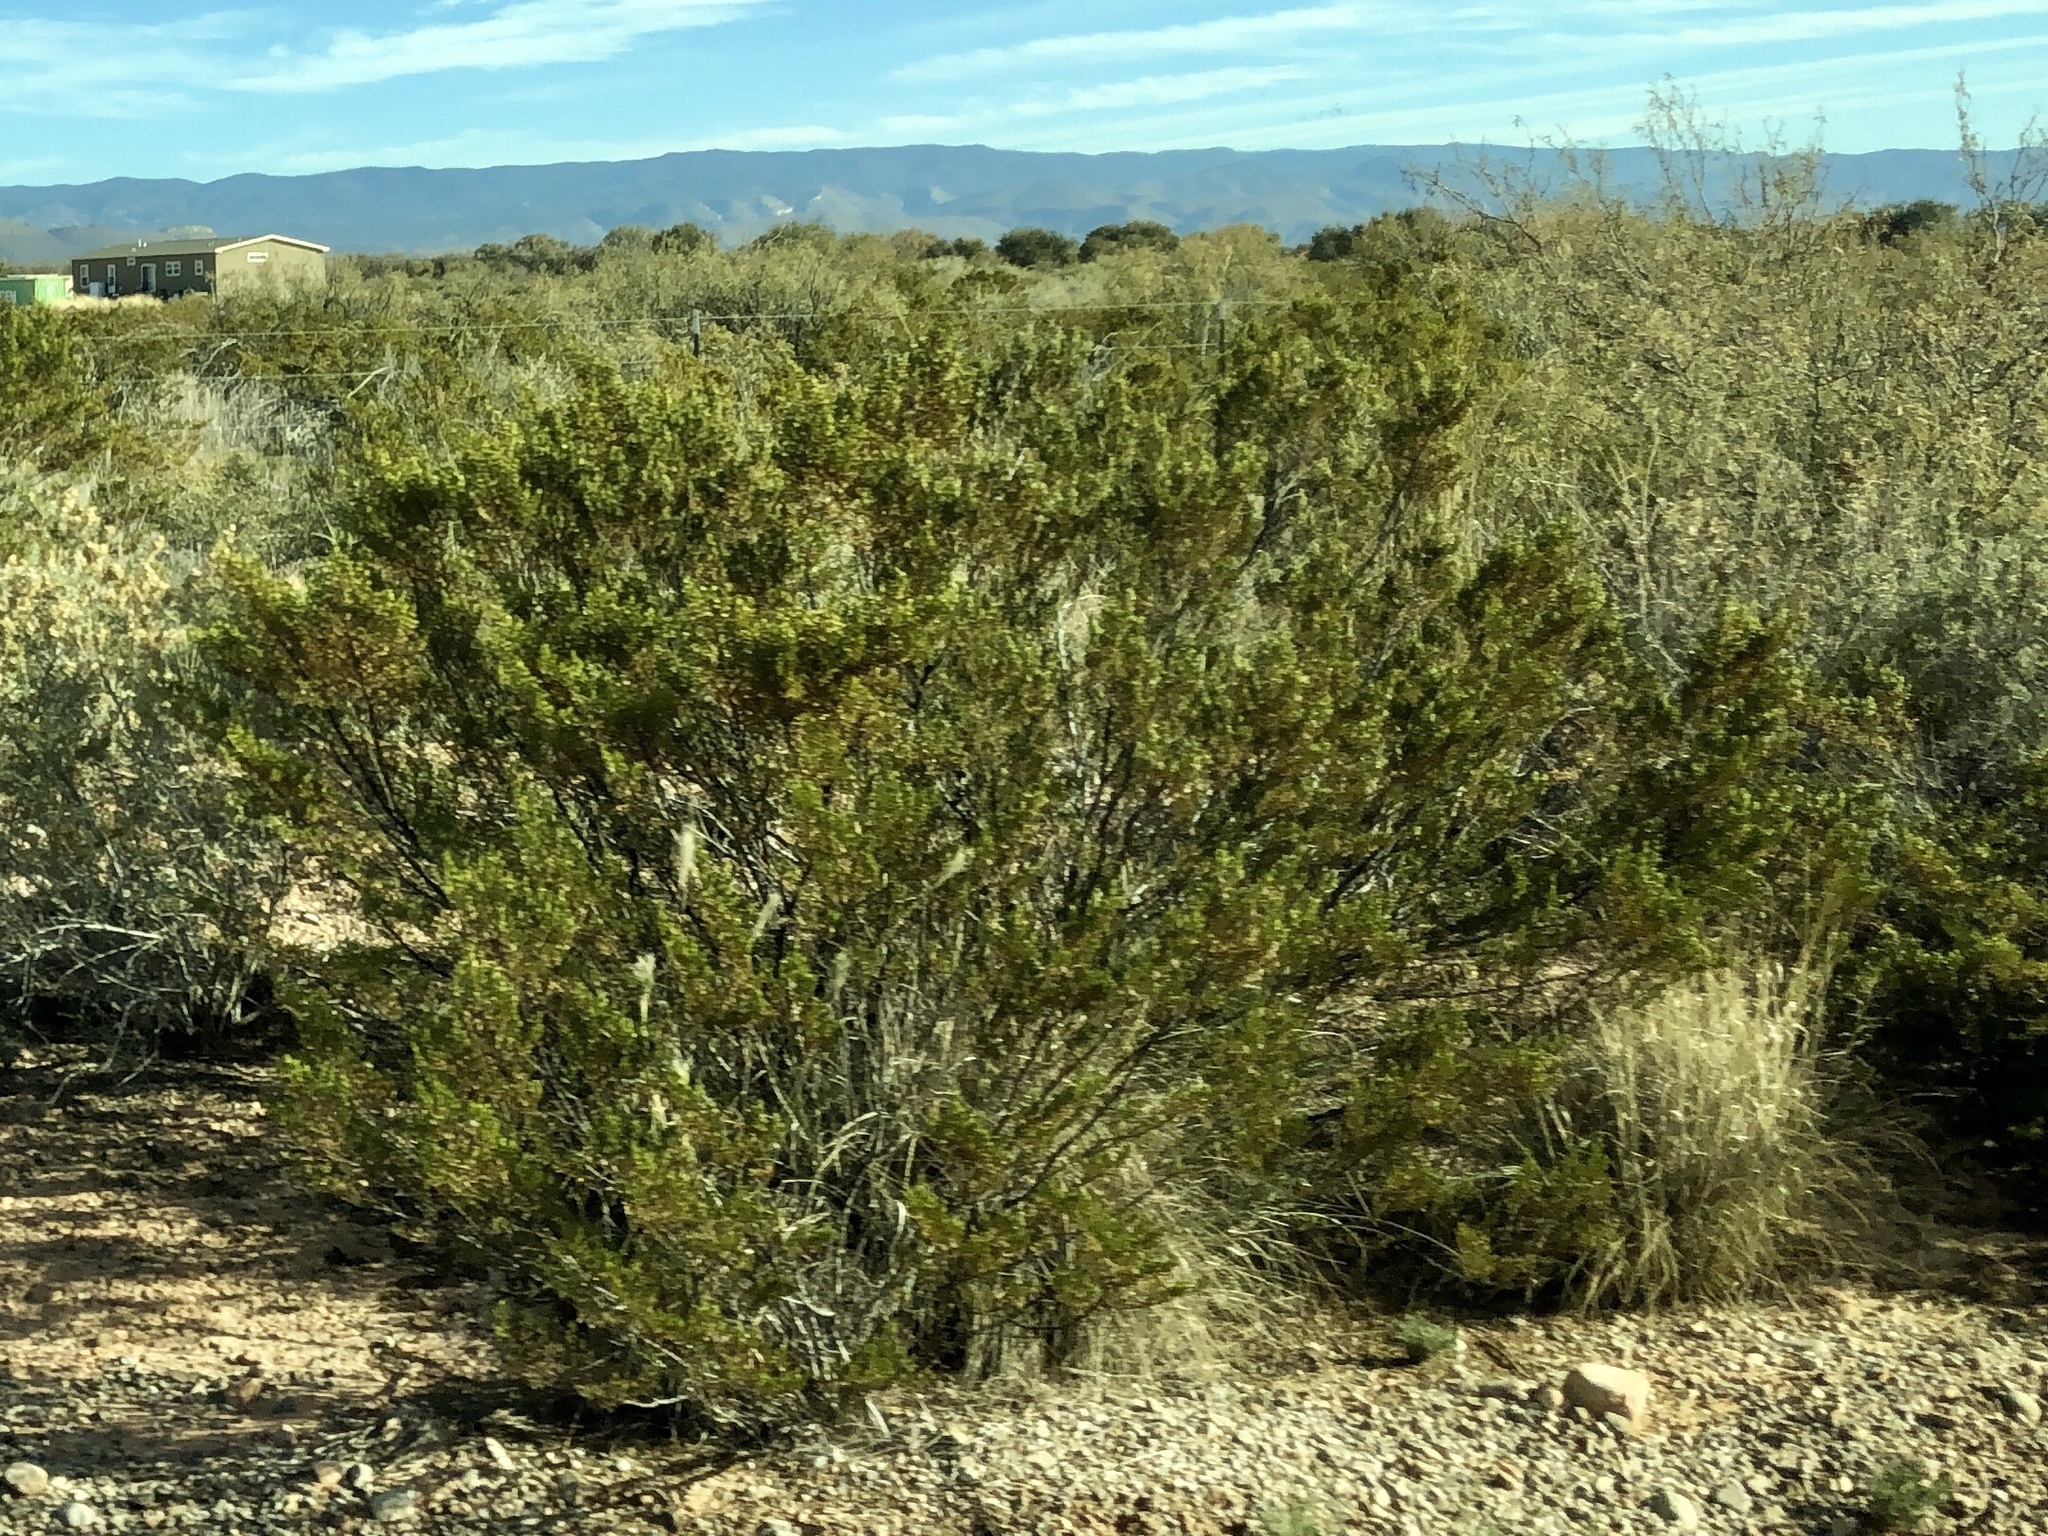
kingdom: Plantae
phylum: Tracheophyta
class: Magnoliopsida
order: Zygophyllales
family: Zygophyllaceae
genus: Larrea
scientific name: Larrea tridentata
